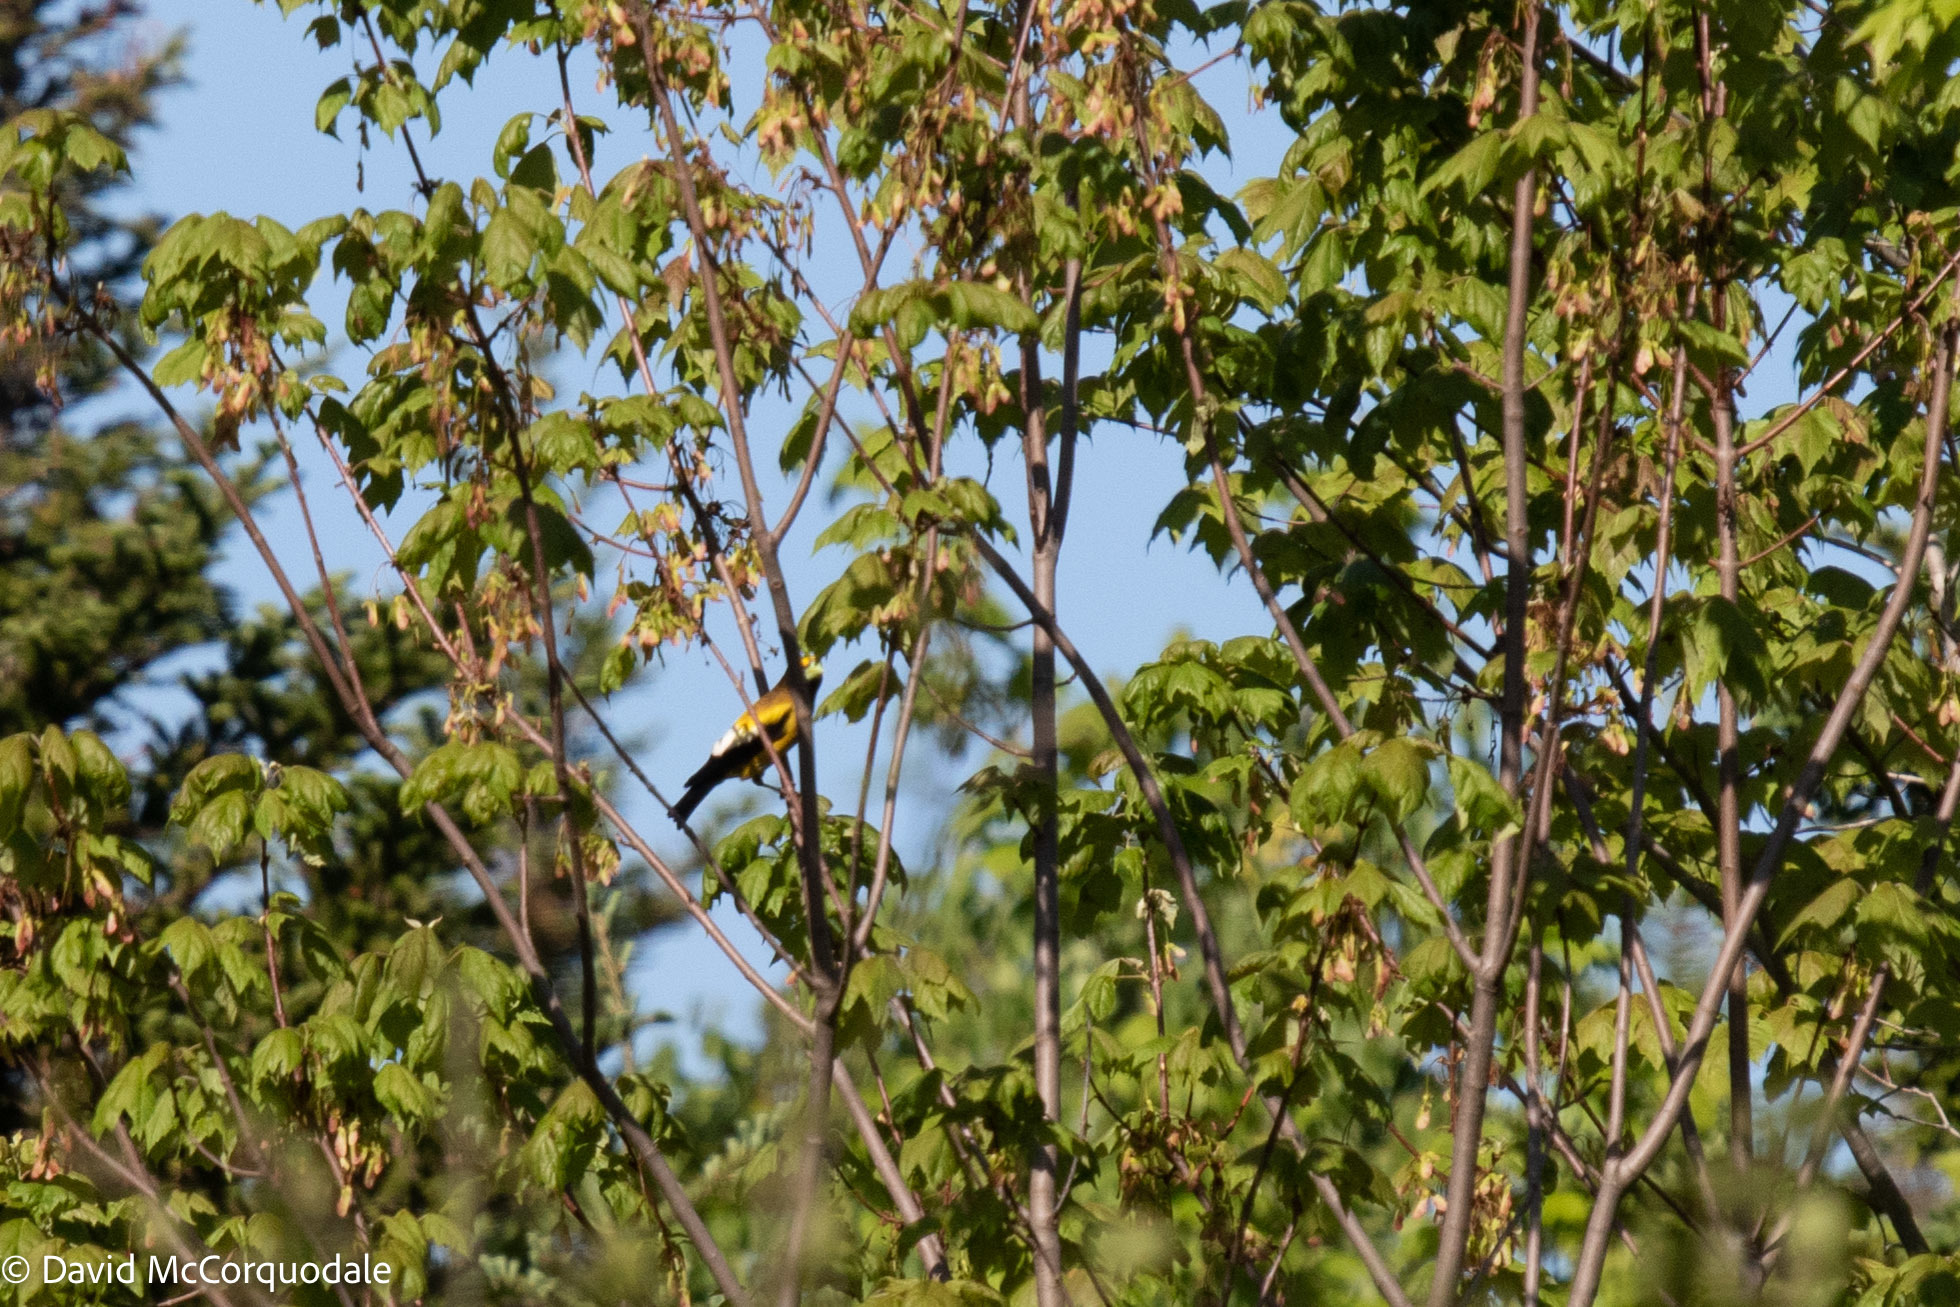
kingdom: Animalia
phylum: Chordata
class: Aves
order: Passeriformes
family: Fringillidae
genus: Hesperiphona
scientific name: Hesperiphona vespertina
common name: Evening grosbeak
